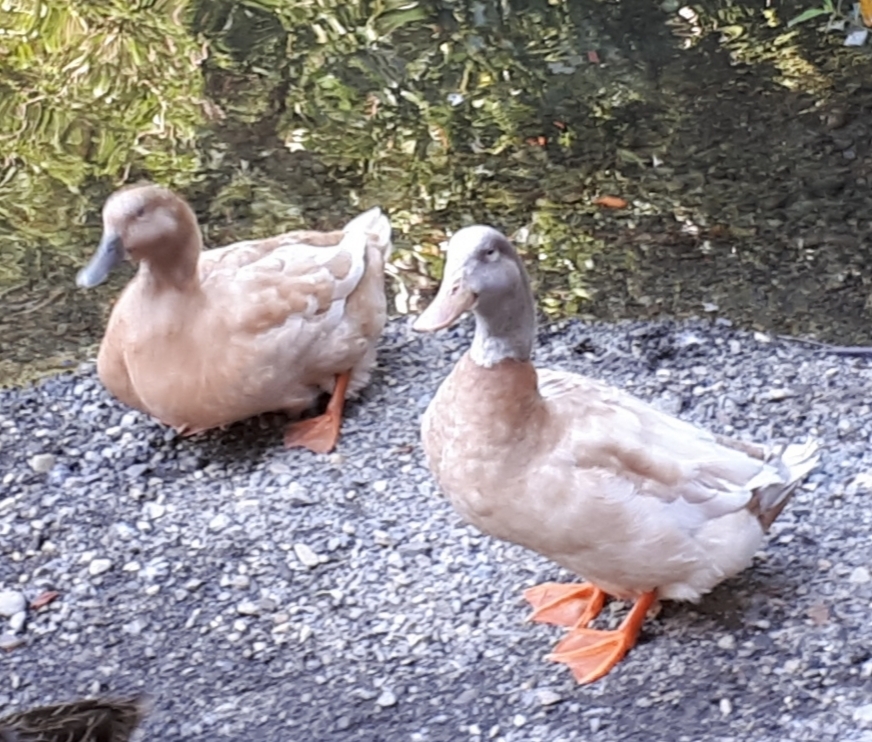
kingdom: Animalia
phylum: Chordata
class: Aves
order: Anseriformes
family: Anatidae
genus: Anas
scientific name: Anas platyrhynchos
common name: Mallard
